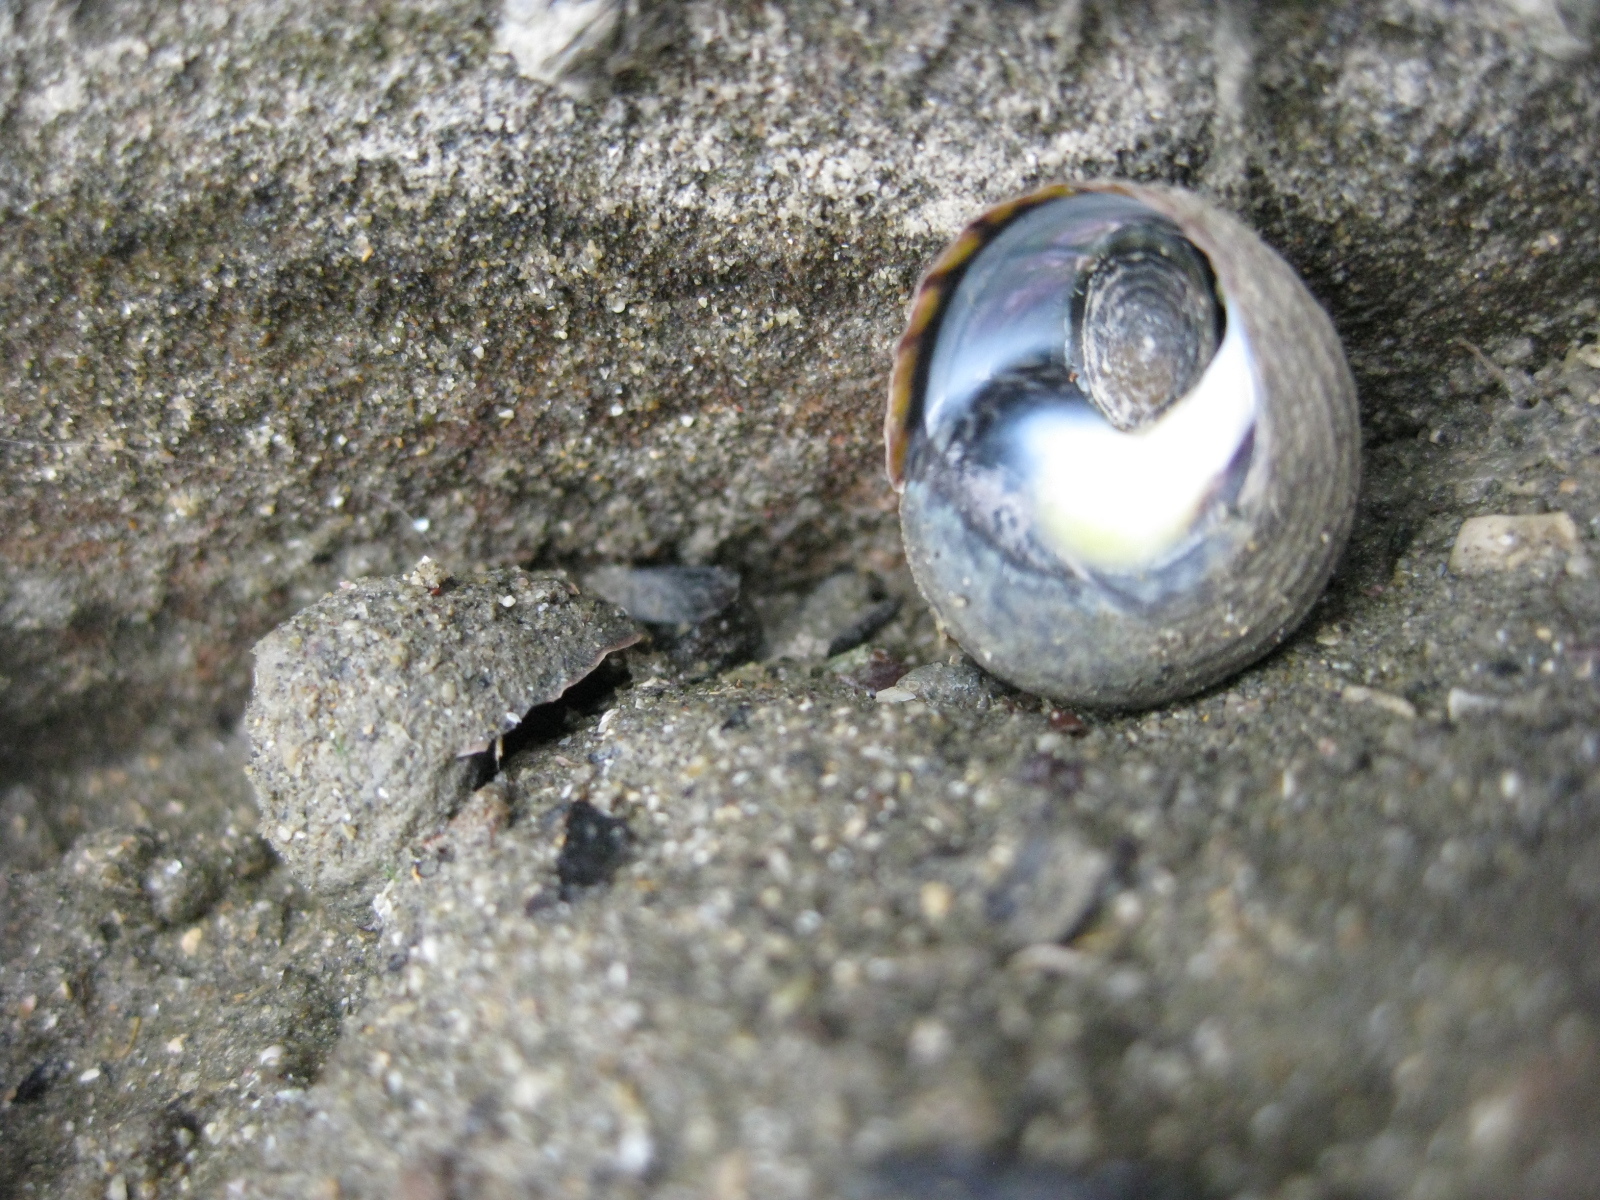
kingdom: Animalia
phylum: Mollusca
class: Gastropoda
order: Trochida
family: Trochidae
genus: Diloma
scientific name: Diloma subrostratum
